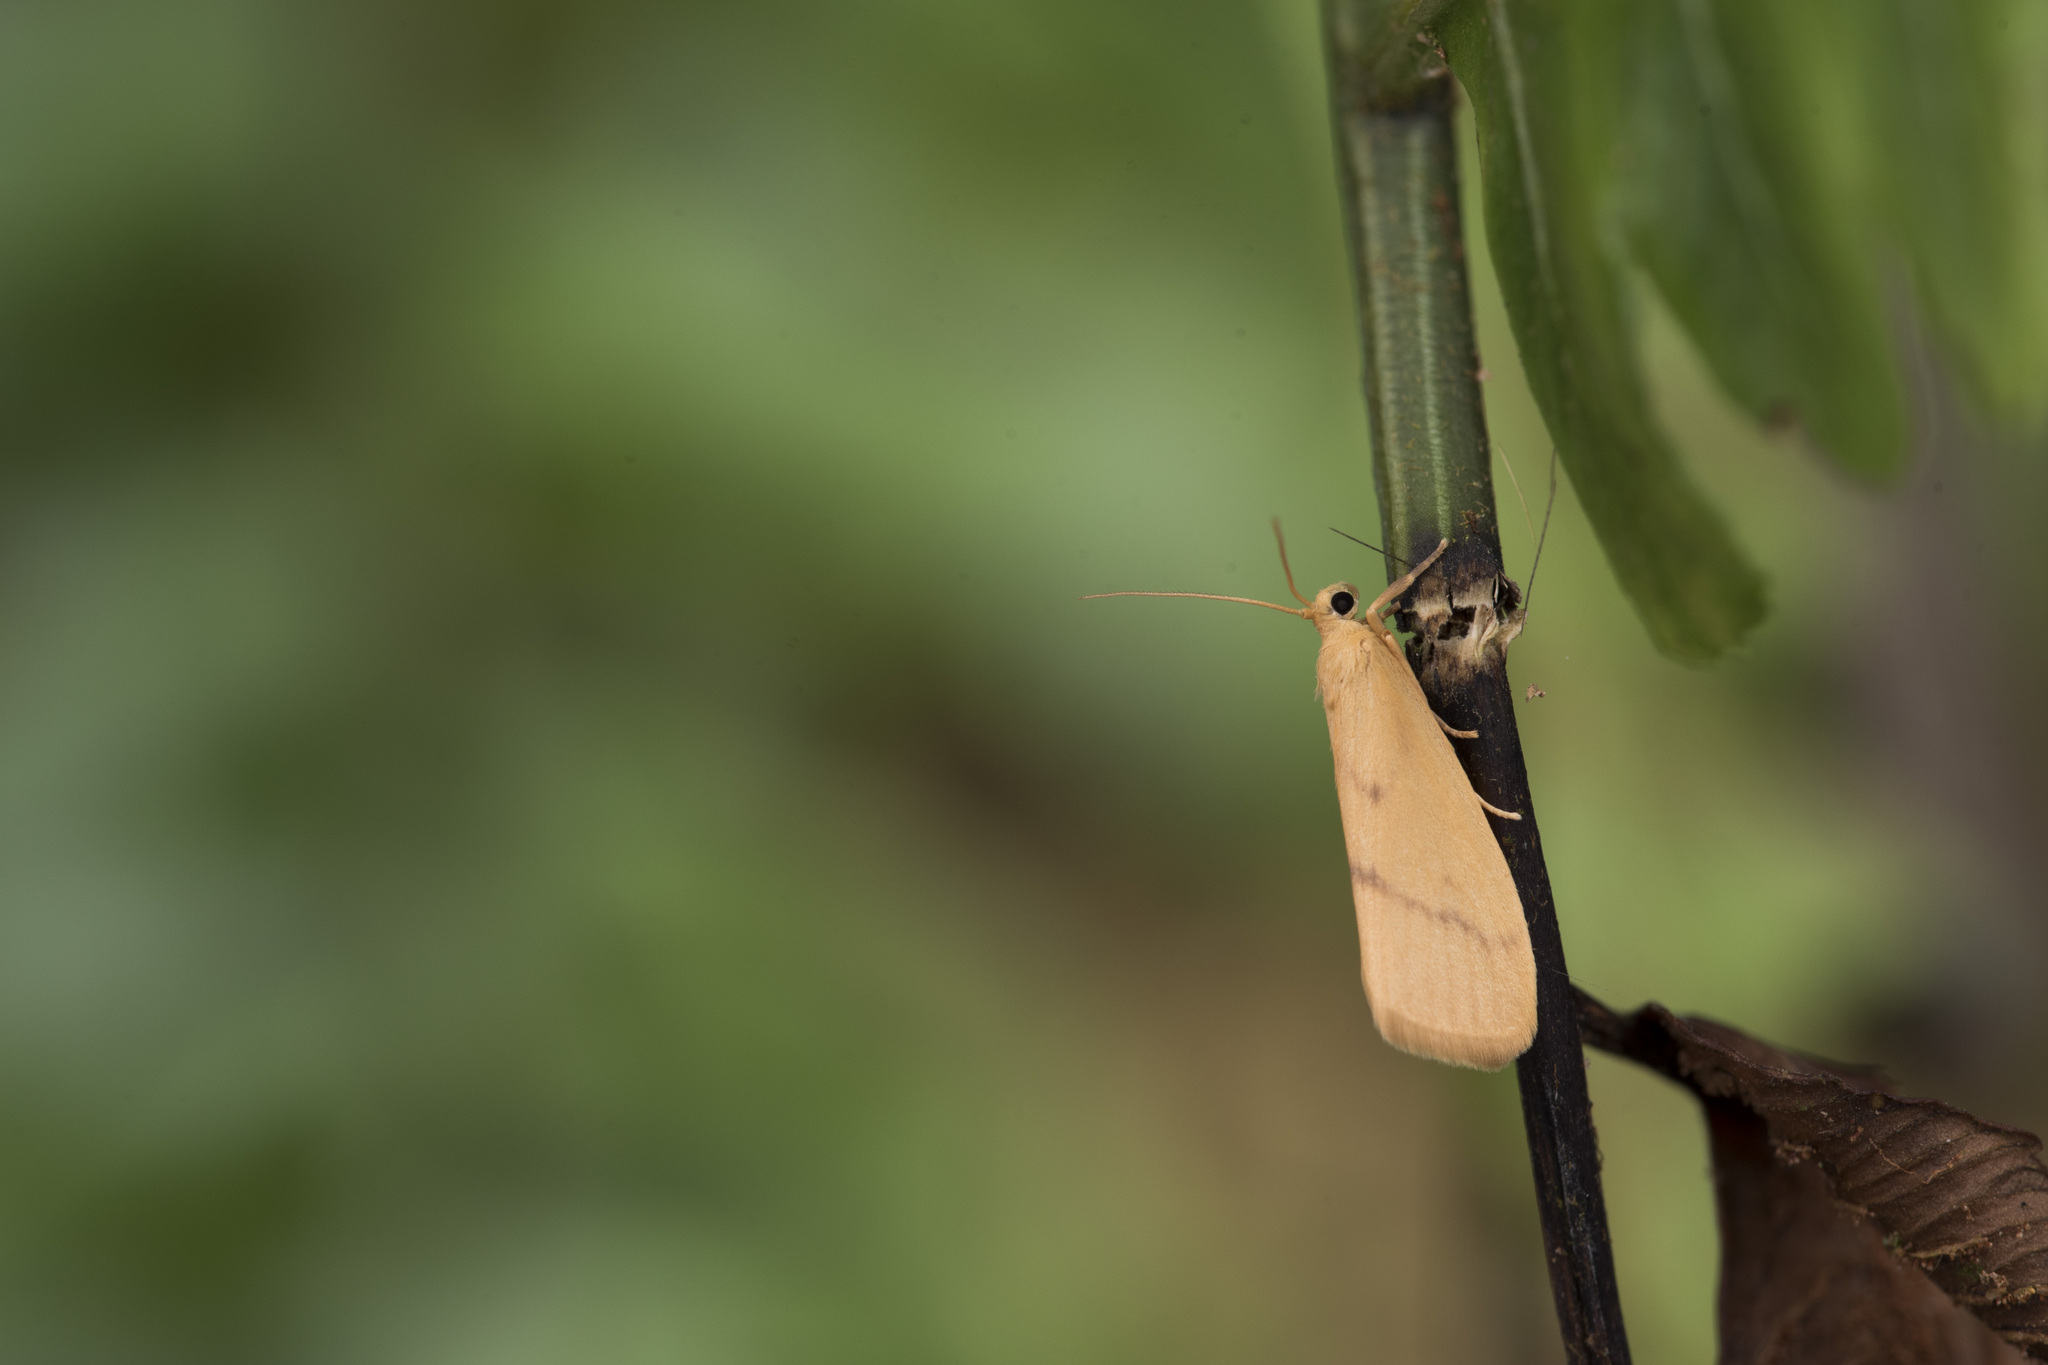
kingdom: Animalia
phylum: Arthropoda
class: Insecta
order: Lepidoptera
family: Erebidae
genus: Notata
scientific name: Notata parva
